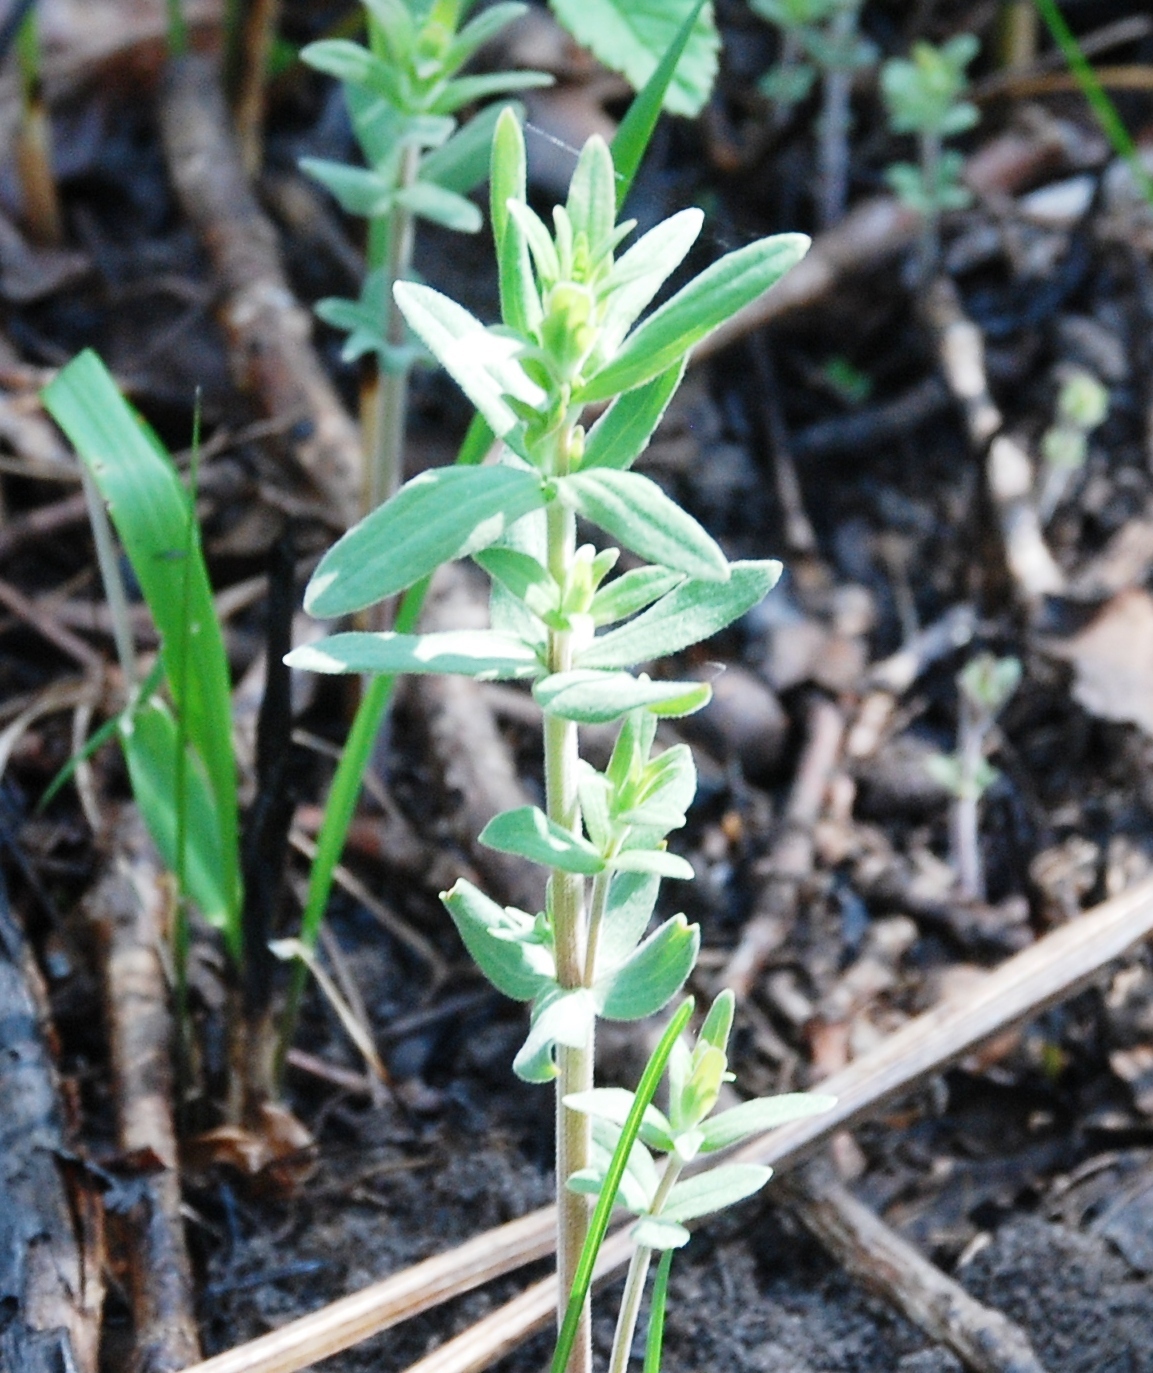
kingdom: Plantae
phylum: Tracheophyta
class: Magnoliopsida
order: Gentianales
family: Rubiaceae
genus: Galium
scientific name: Galium boreale
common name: Northern bedstraw
